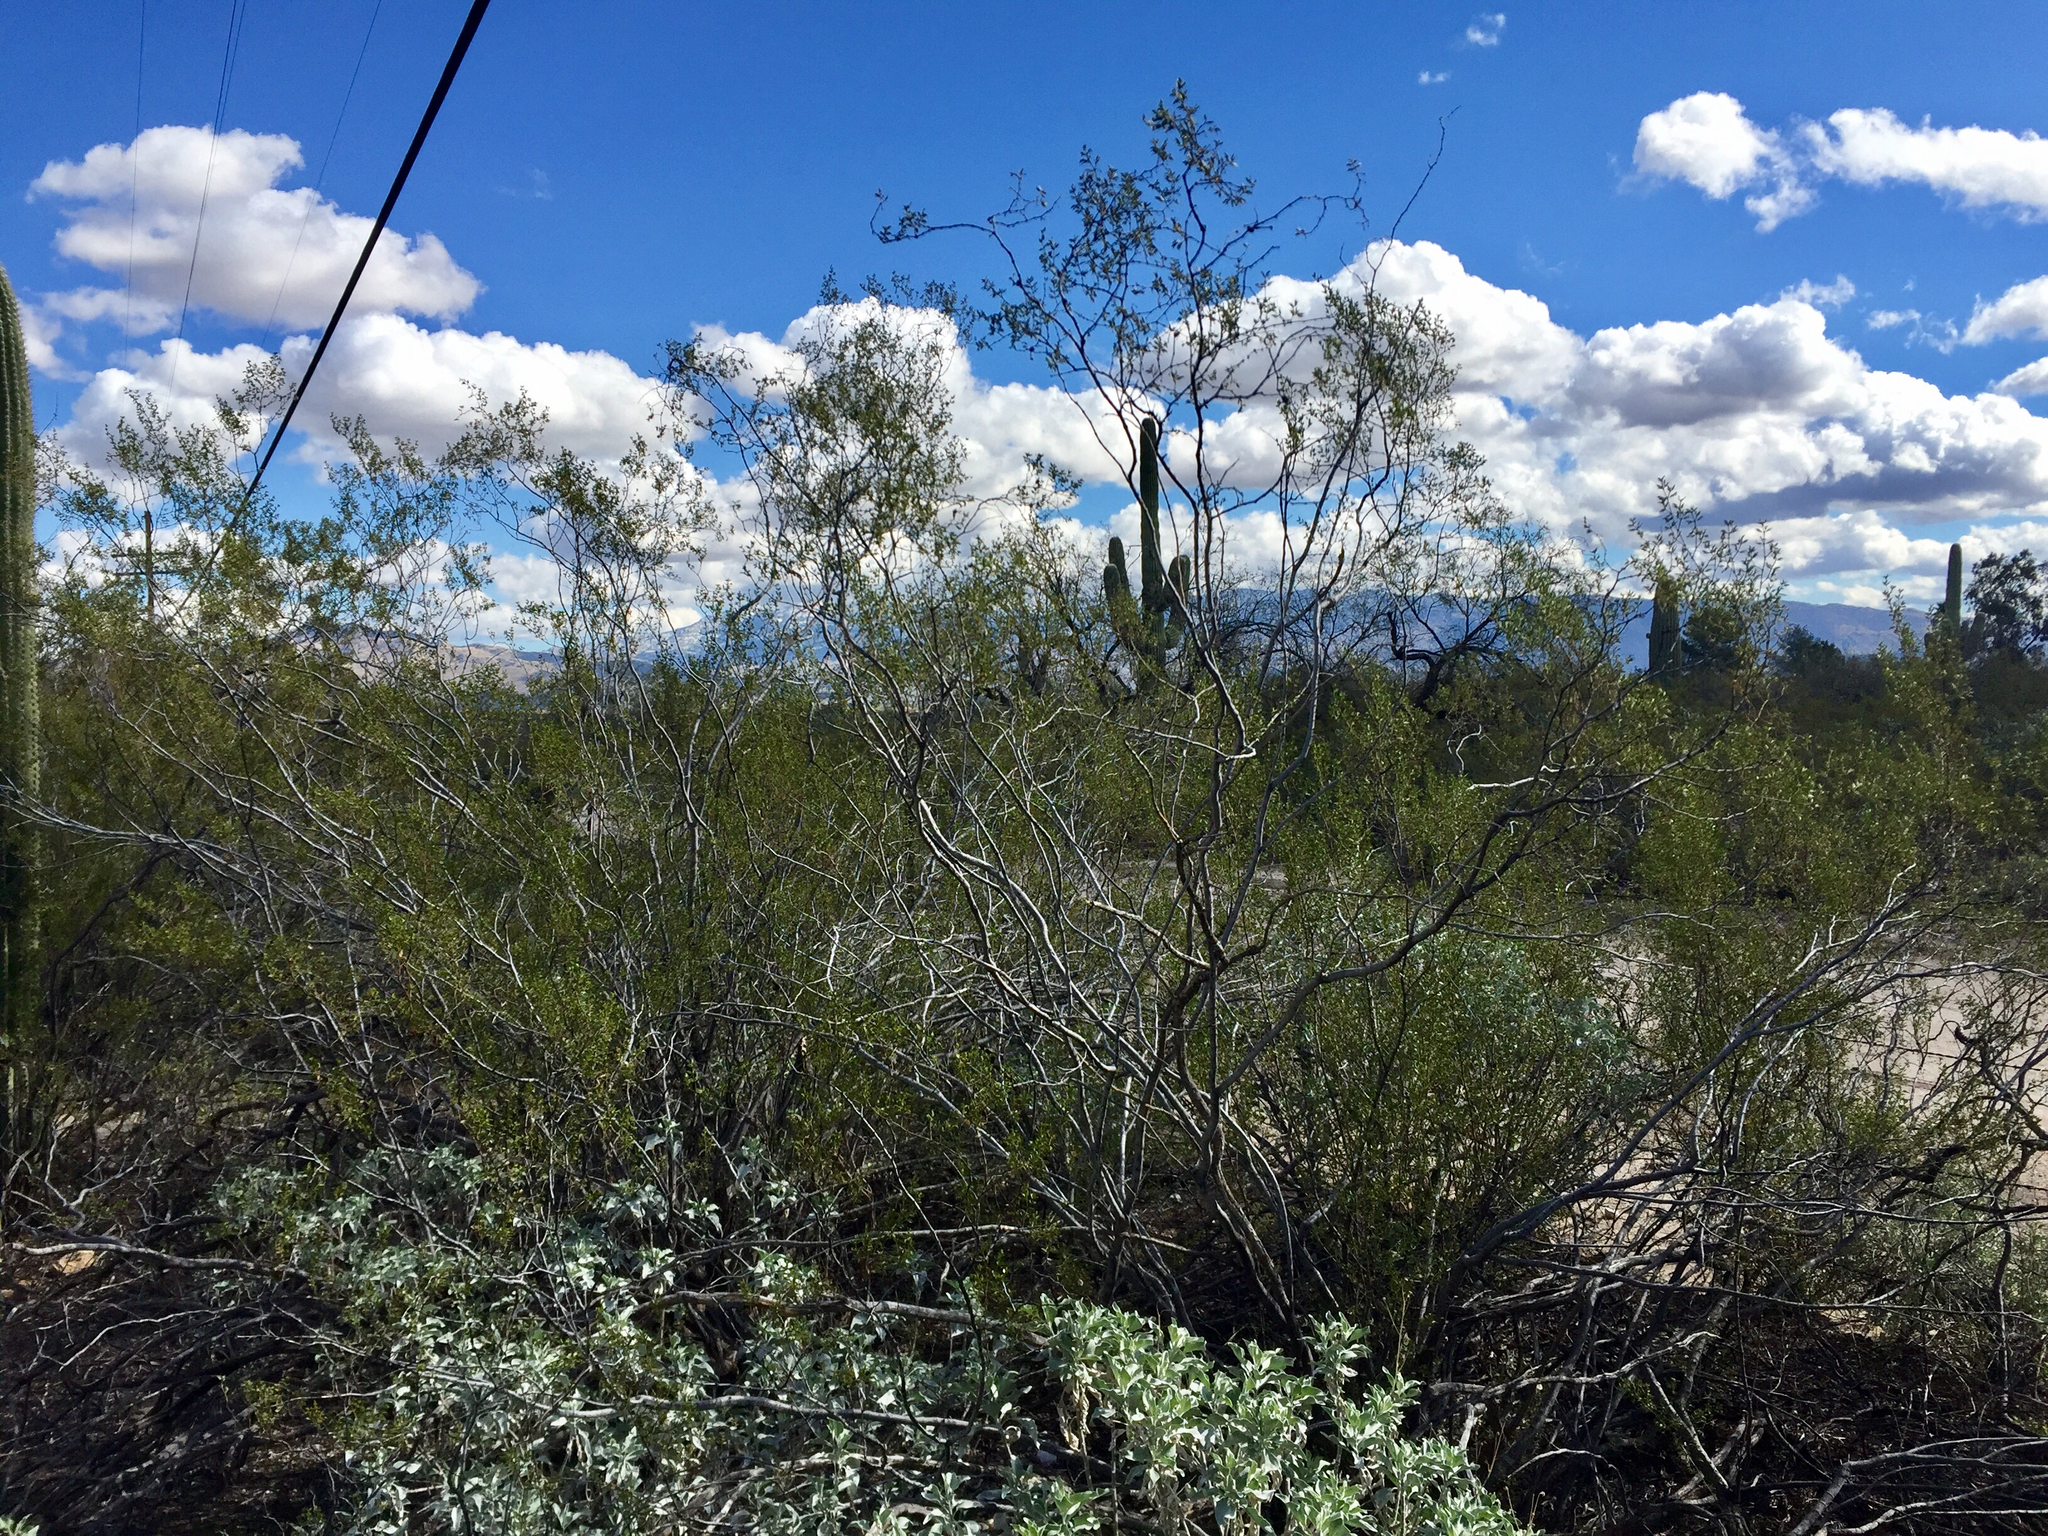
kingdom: Plantae
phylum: Tracheophyta
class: Magnoliopsida
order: Zygophyllales
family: Zygophyllaceae
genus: Larrea
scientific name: Larrea tridentata
